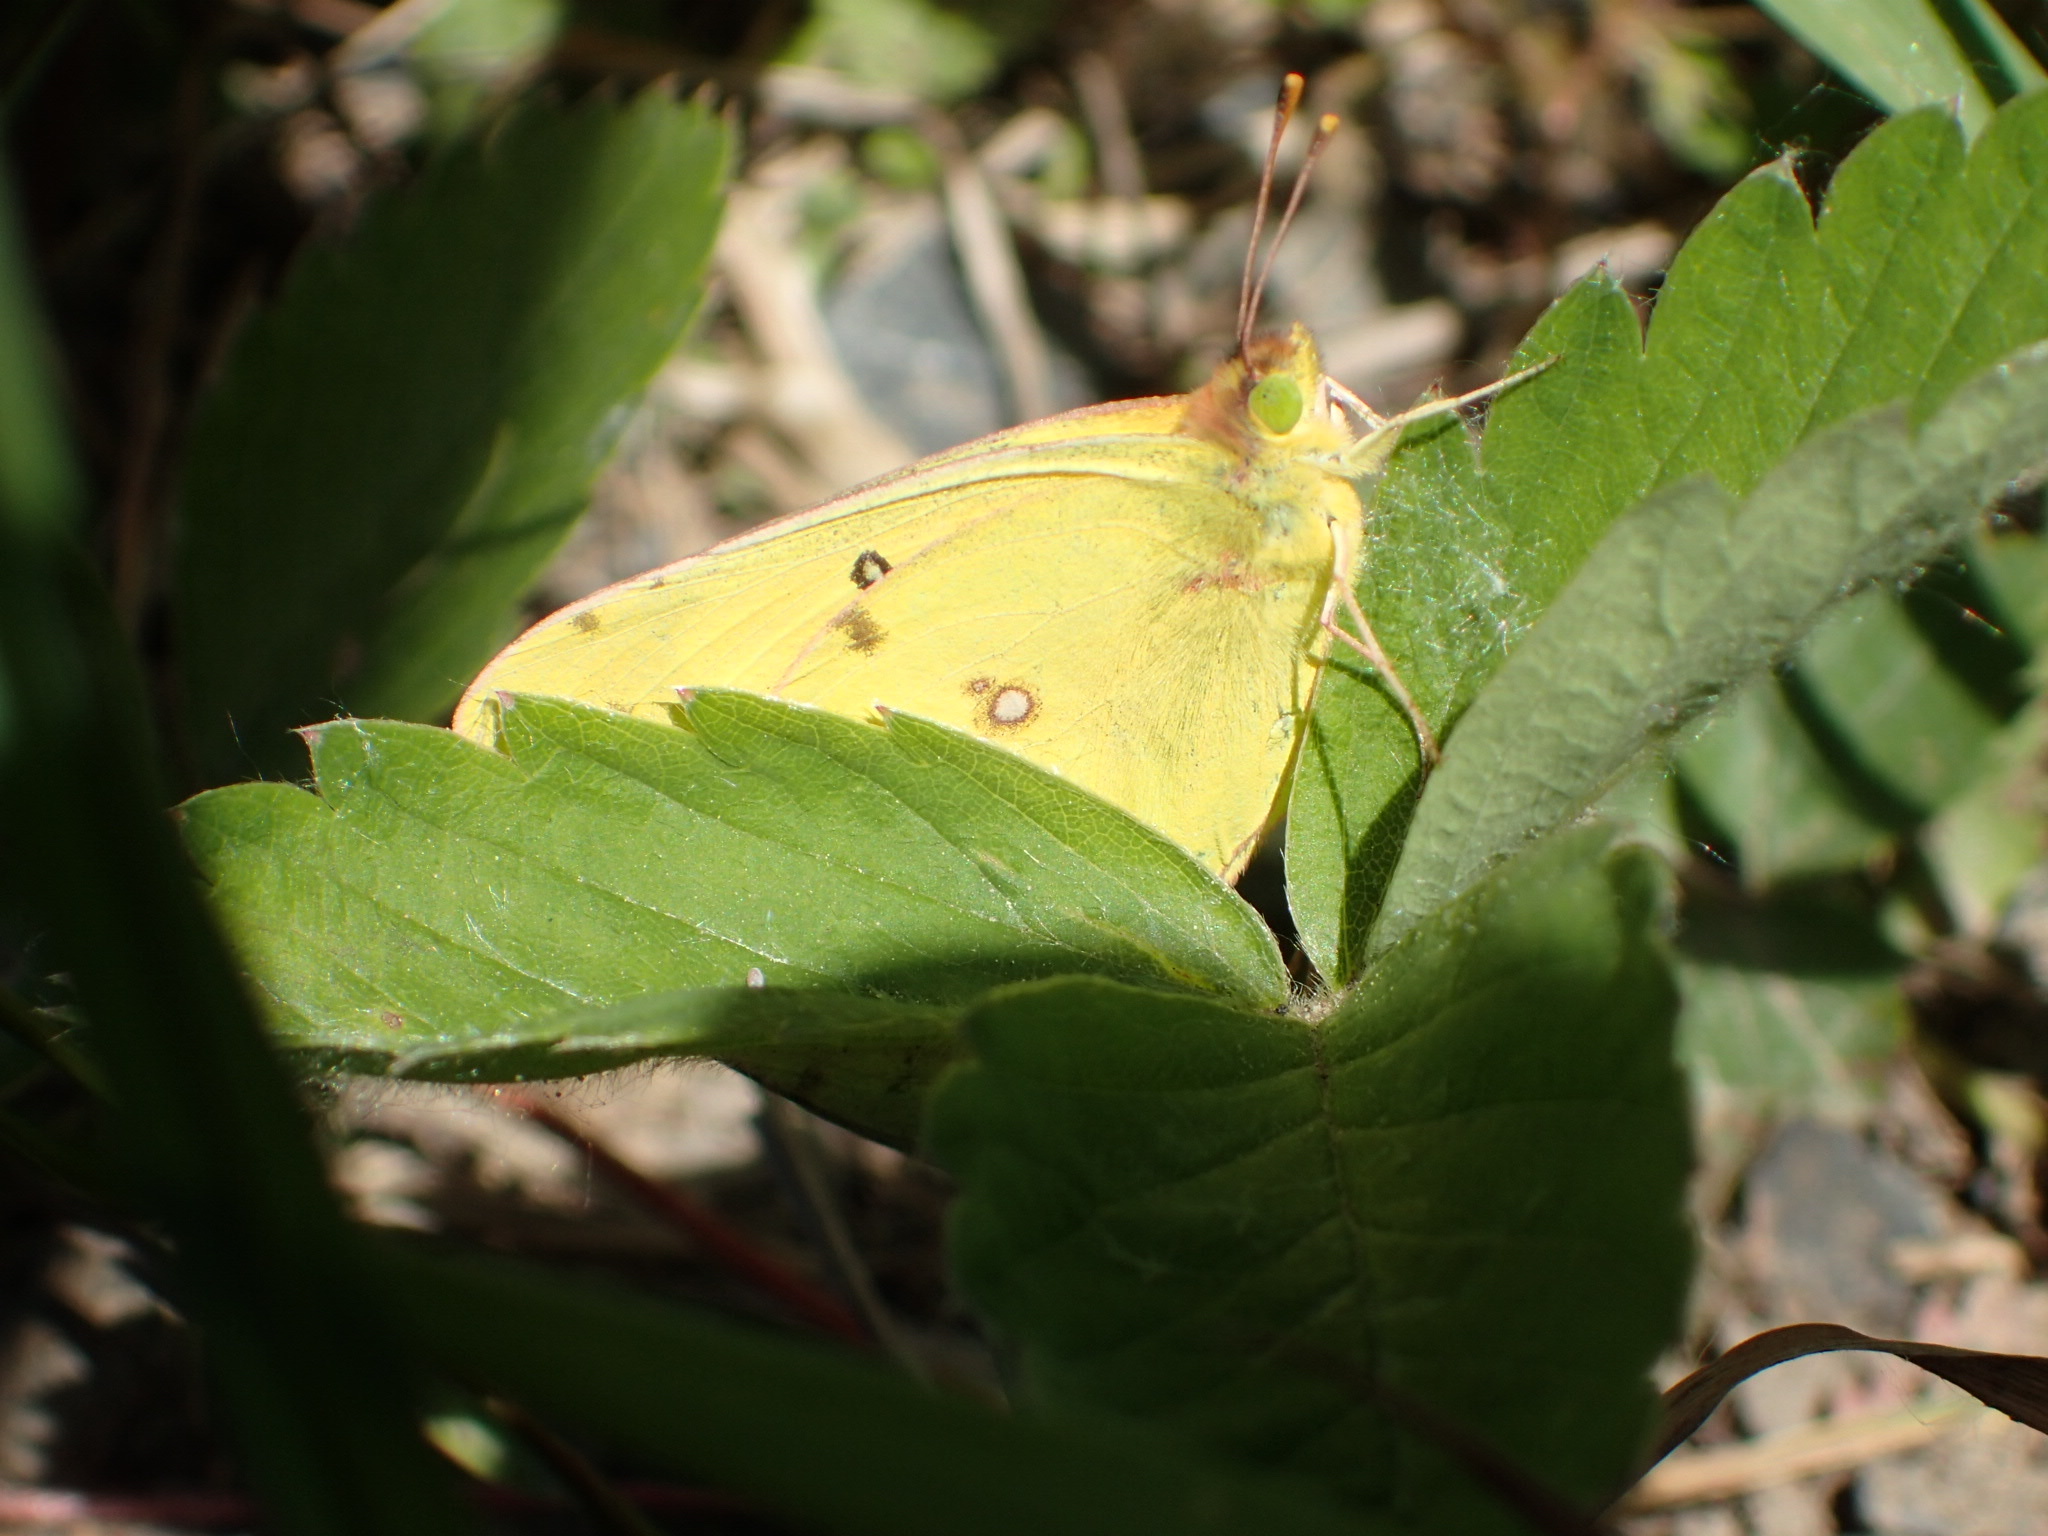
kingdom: Animalia
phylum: Arthropoda
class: Insecta
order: Lepidoptera
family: Pieridae
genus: Colias
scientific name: Colias philodice
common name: Clouded sulphur
